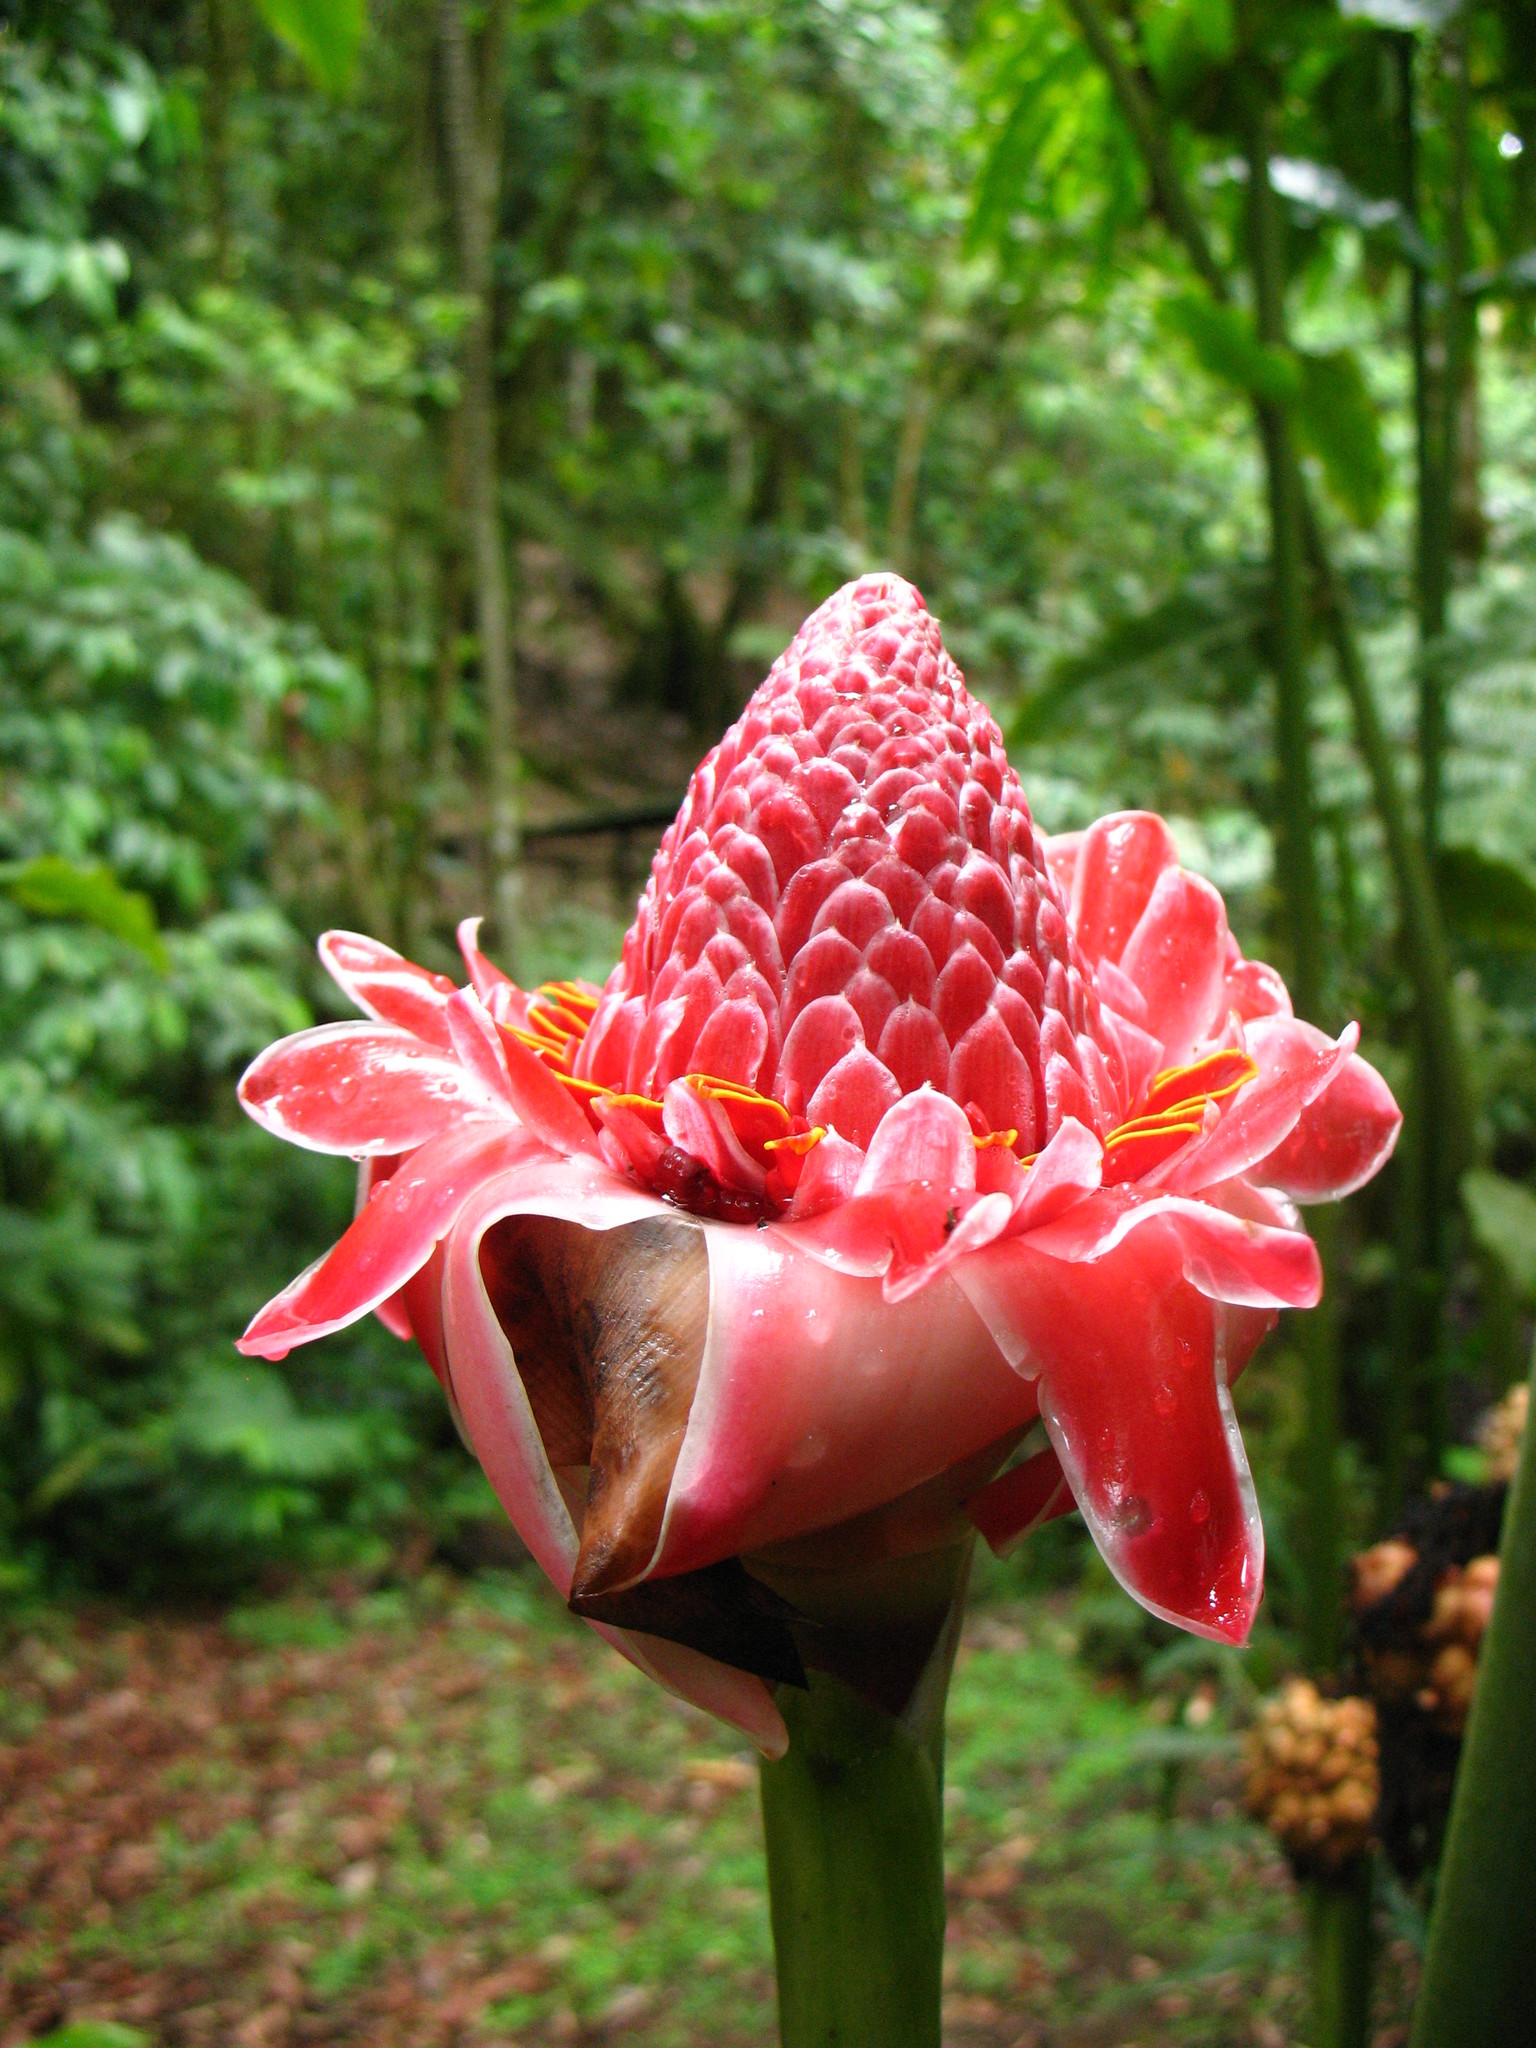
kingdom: Plantae
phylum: Tracheophyta
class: Liliopsida
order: Zingiberales
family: Zingiberaceae
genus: Etlingera
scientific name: Etlingera elatior
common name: Philippine waxflower
